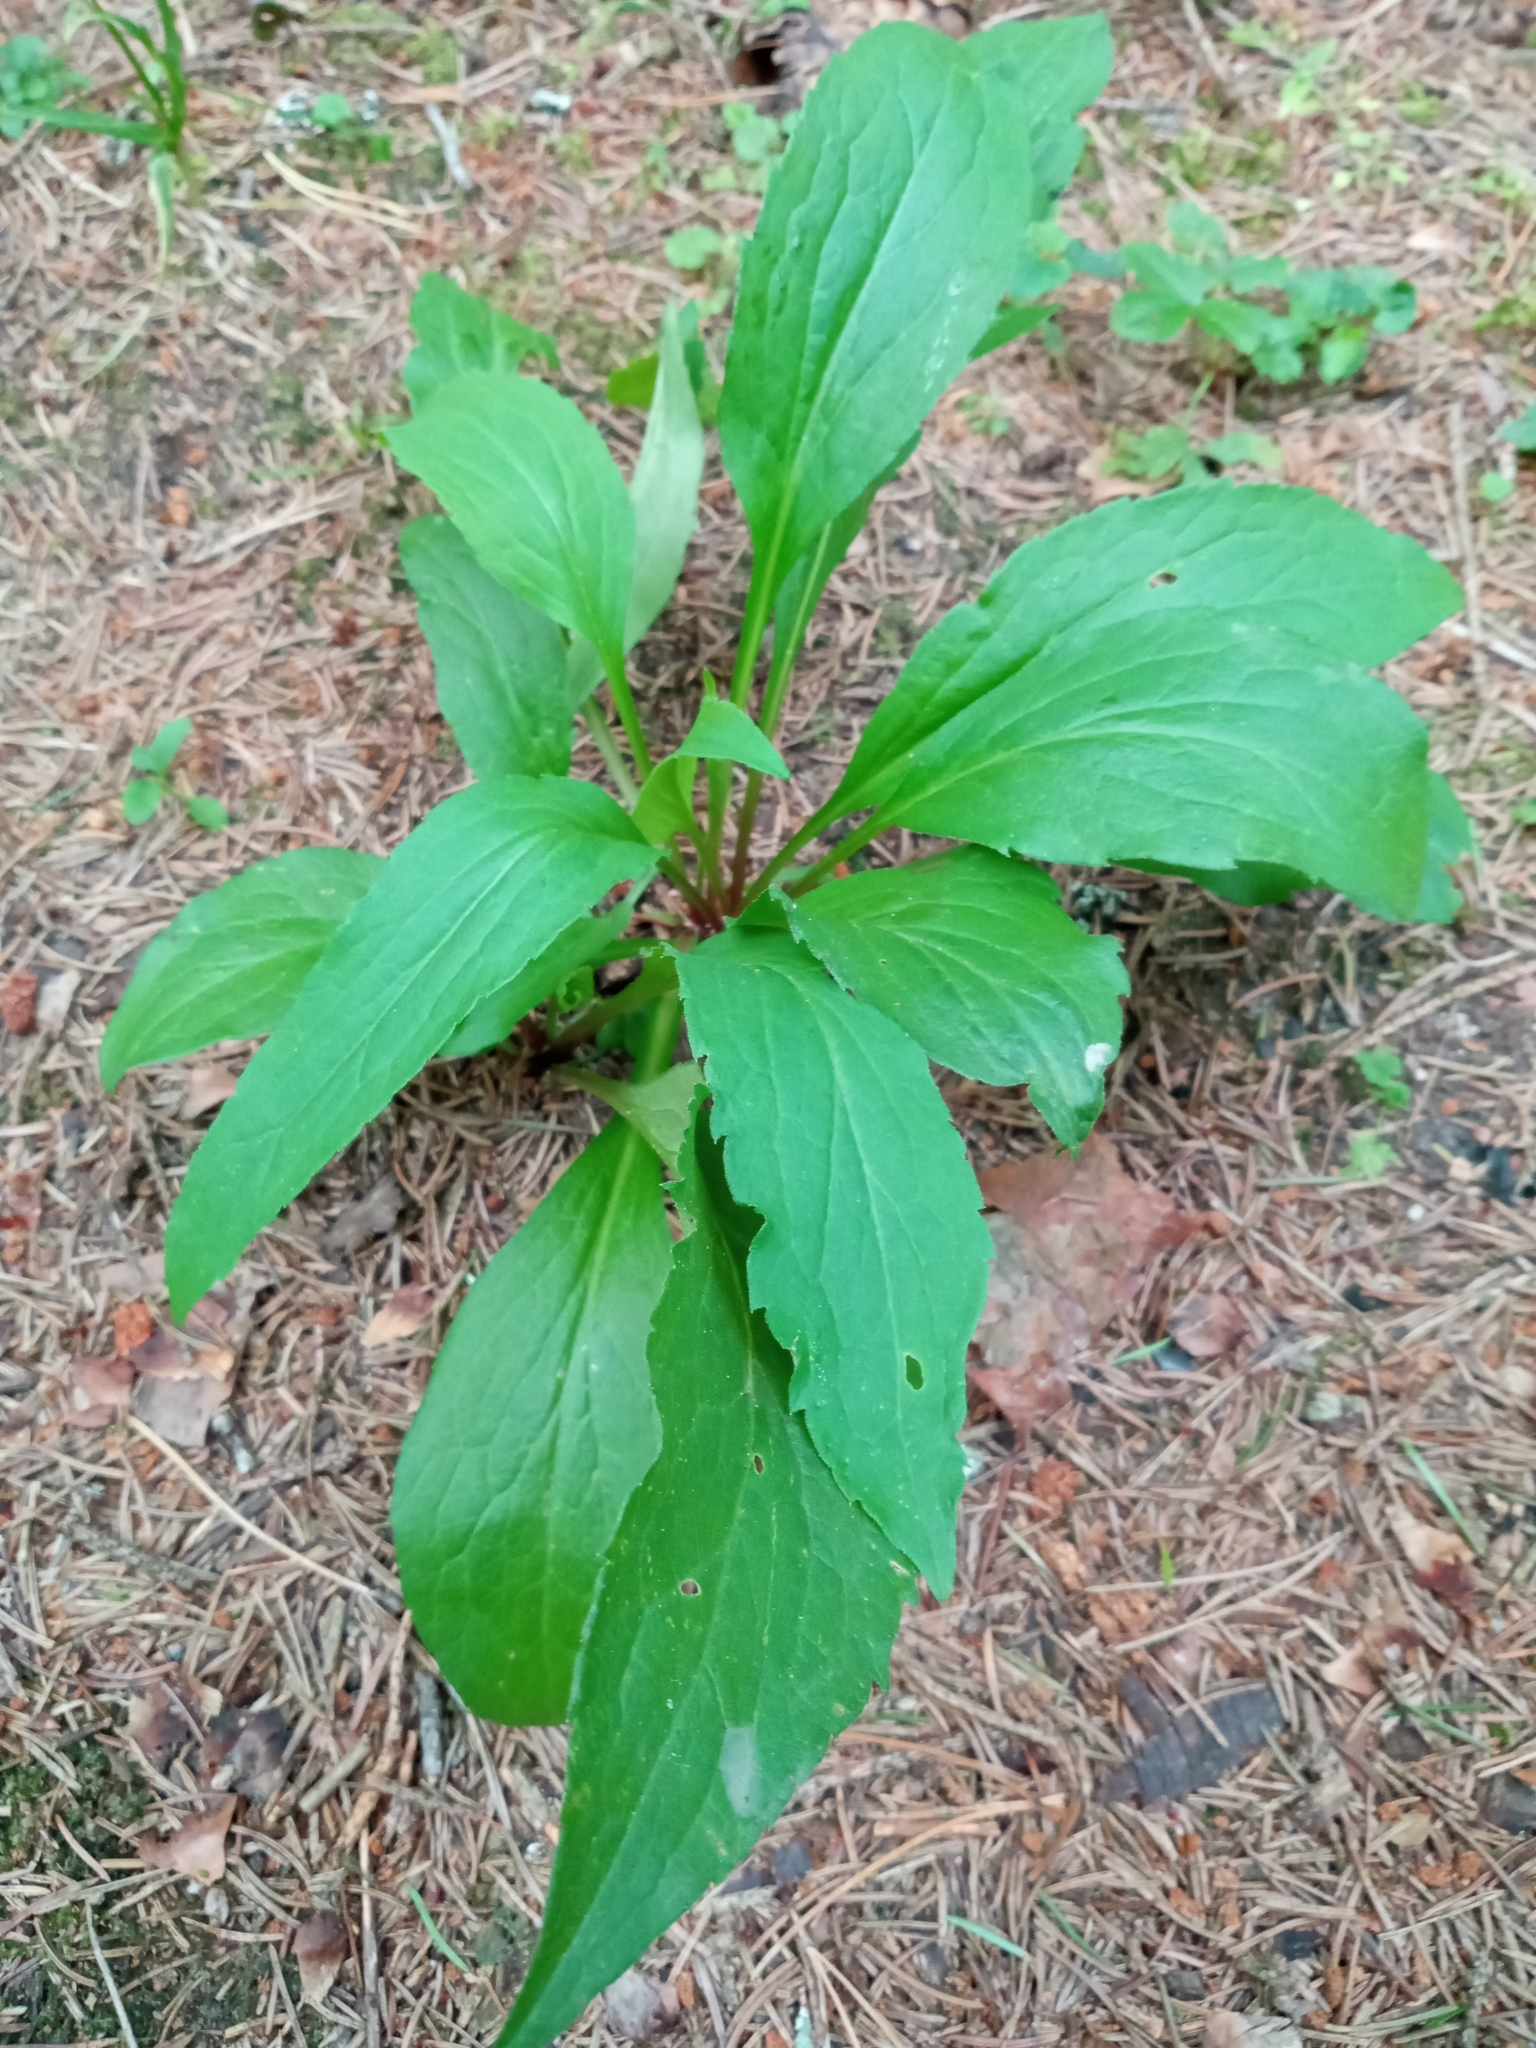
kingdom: Plantae
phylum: Tracheophyta
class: Magnoliopsida
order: Asterales
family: Asteraceae
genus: Solidago
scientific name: Solidago virgaurea
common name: Goldenrod
